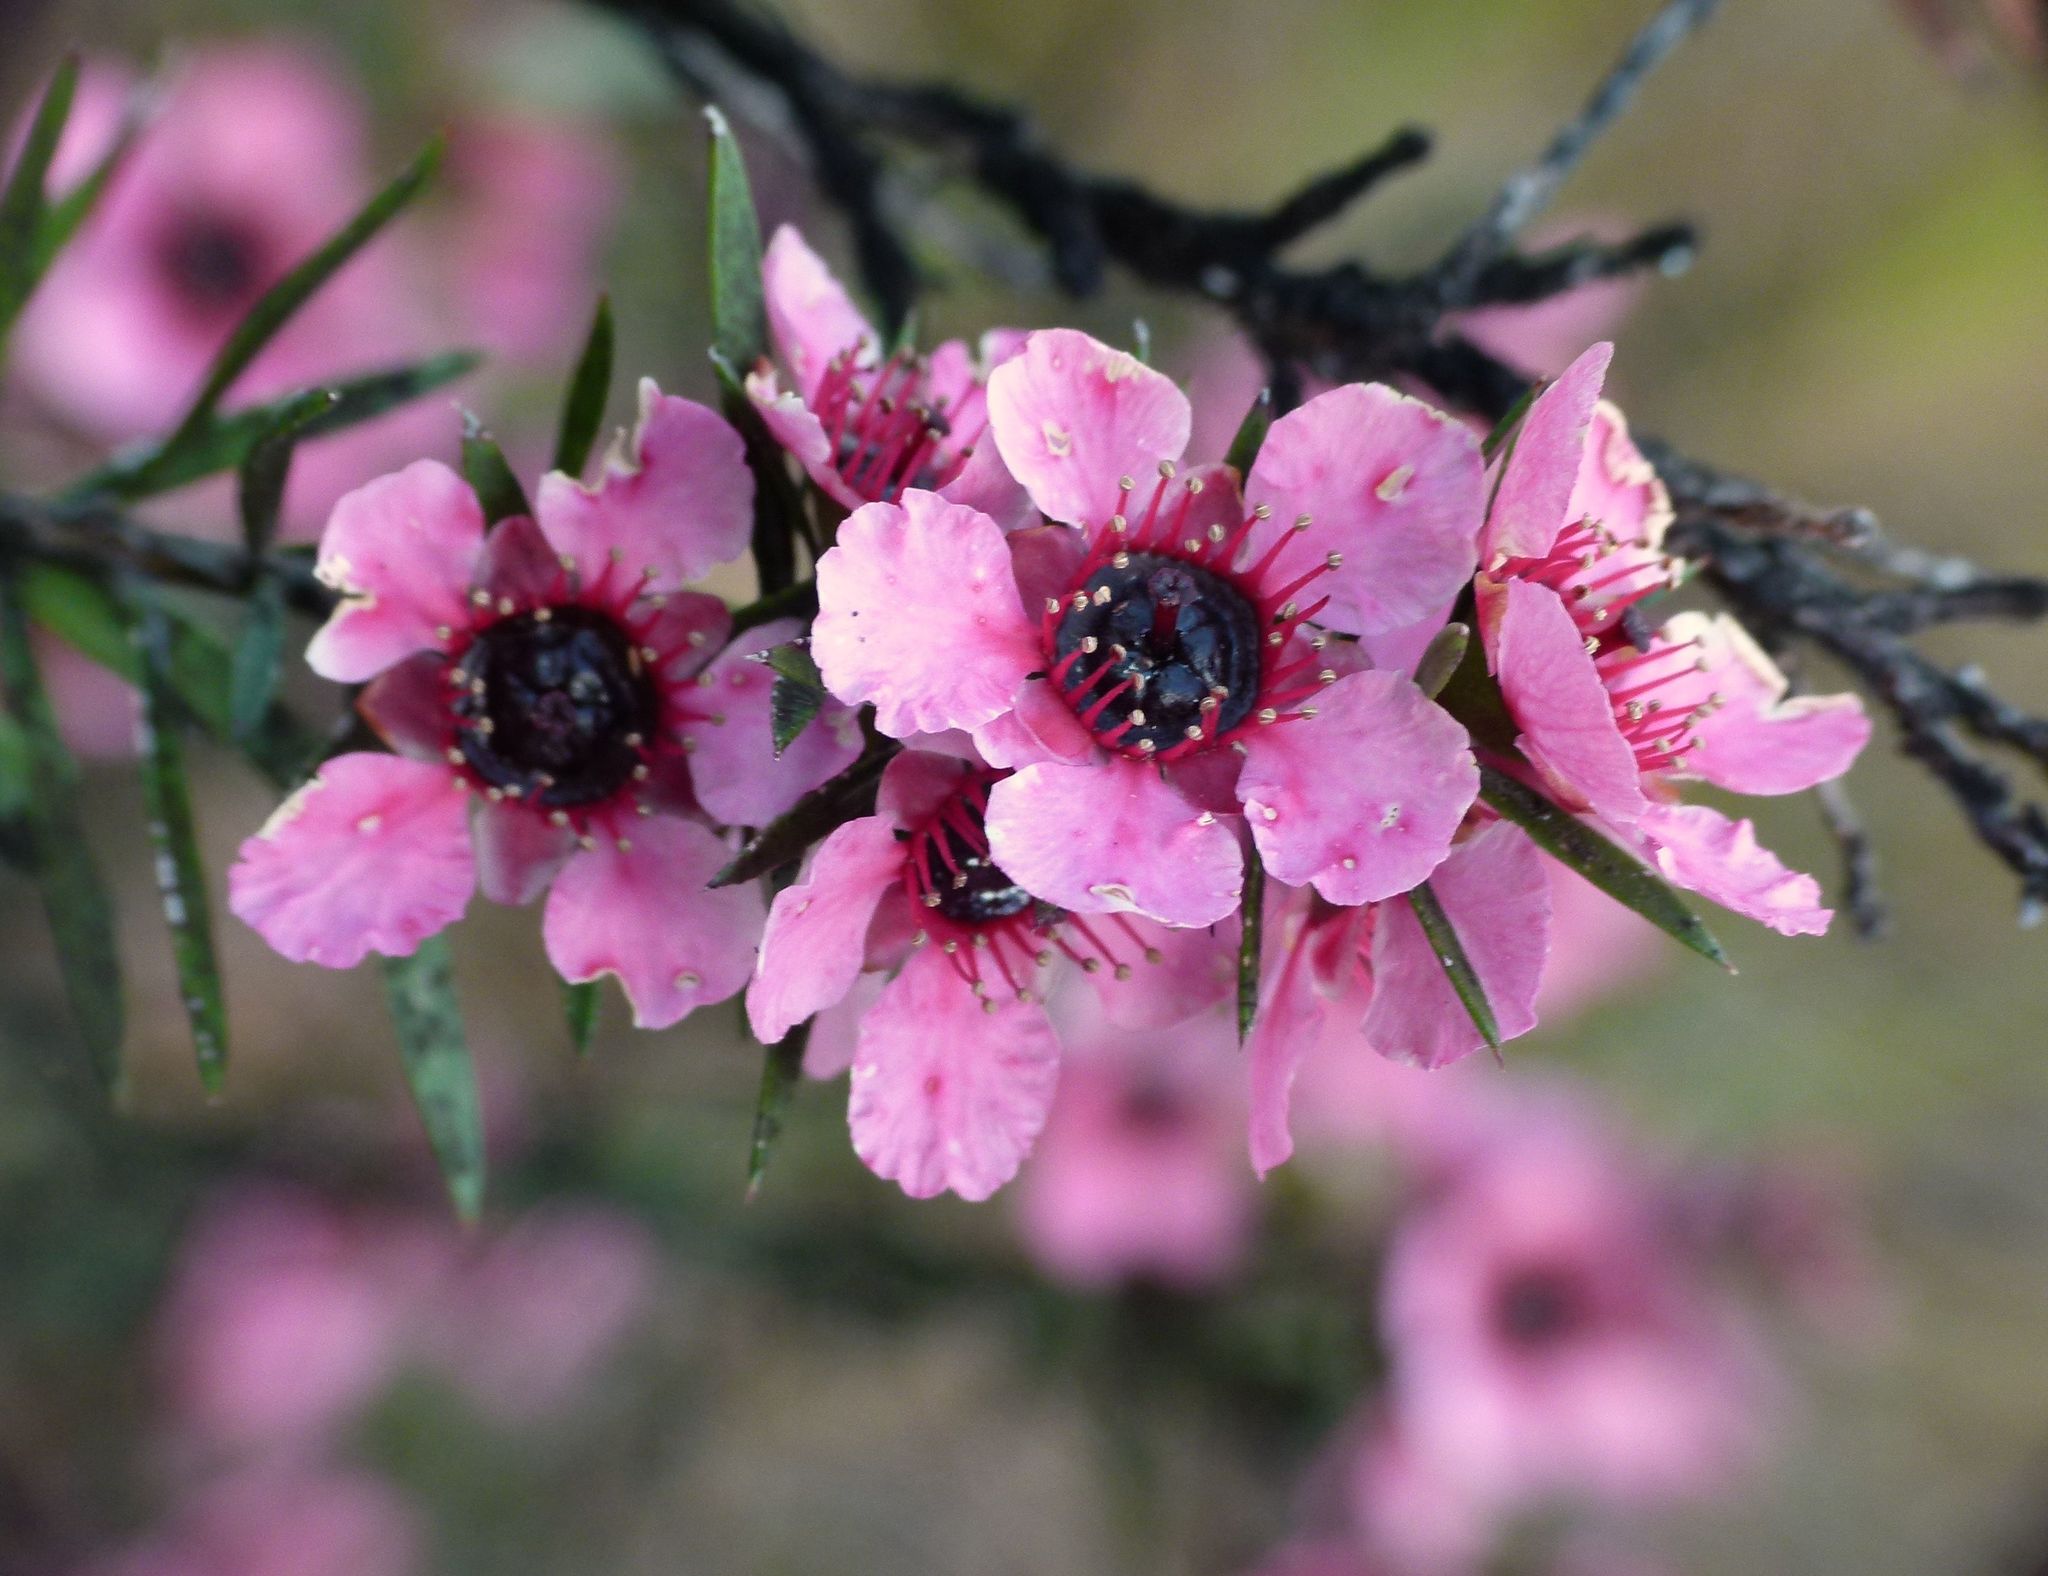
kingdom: Plantae
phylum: Tracheophyta
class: Magnoliopsida
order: Myrtales
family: Myrtaceae
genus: Leptospermum
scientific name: Leptospermum scoparium
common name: Broom tea-tree
